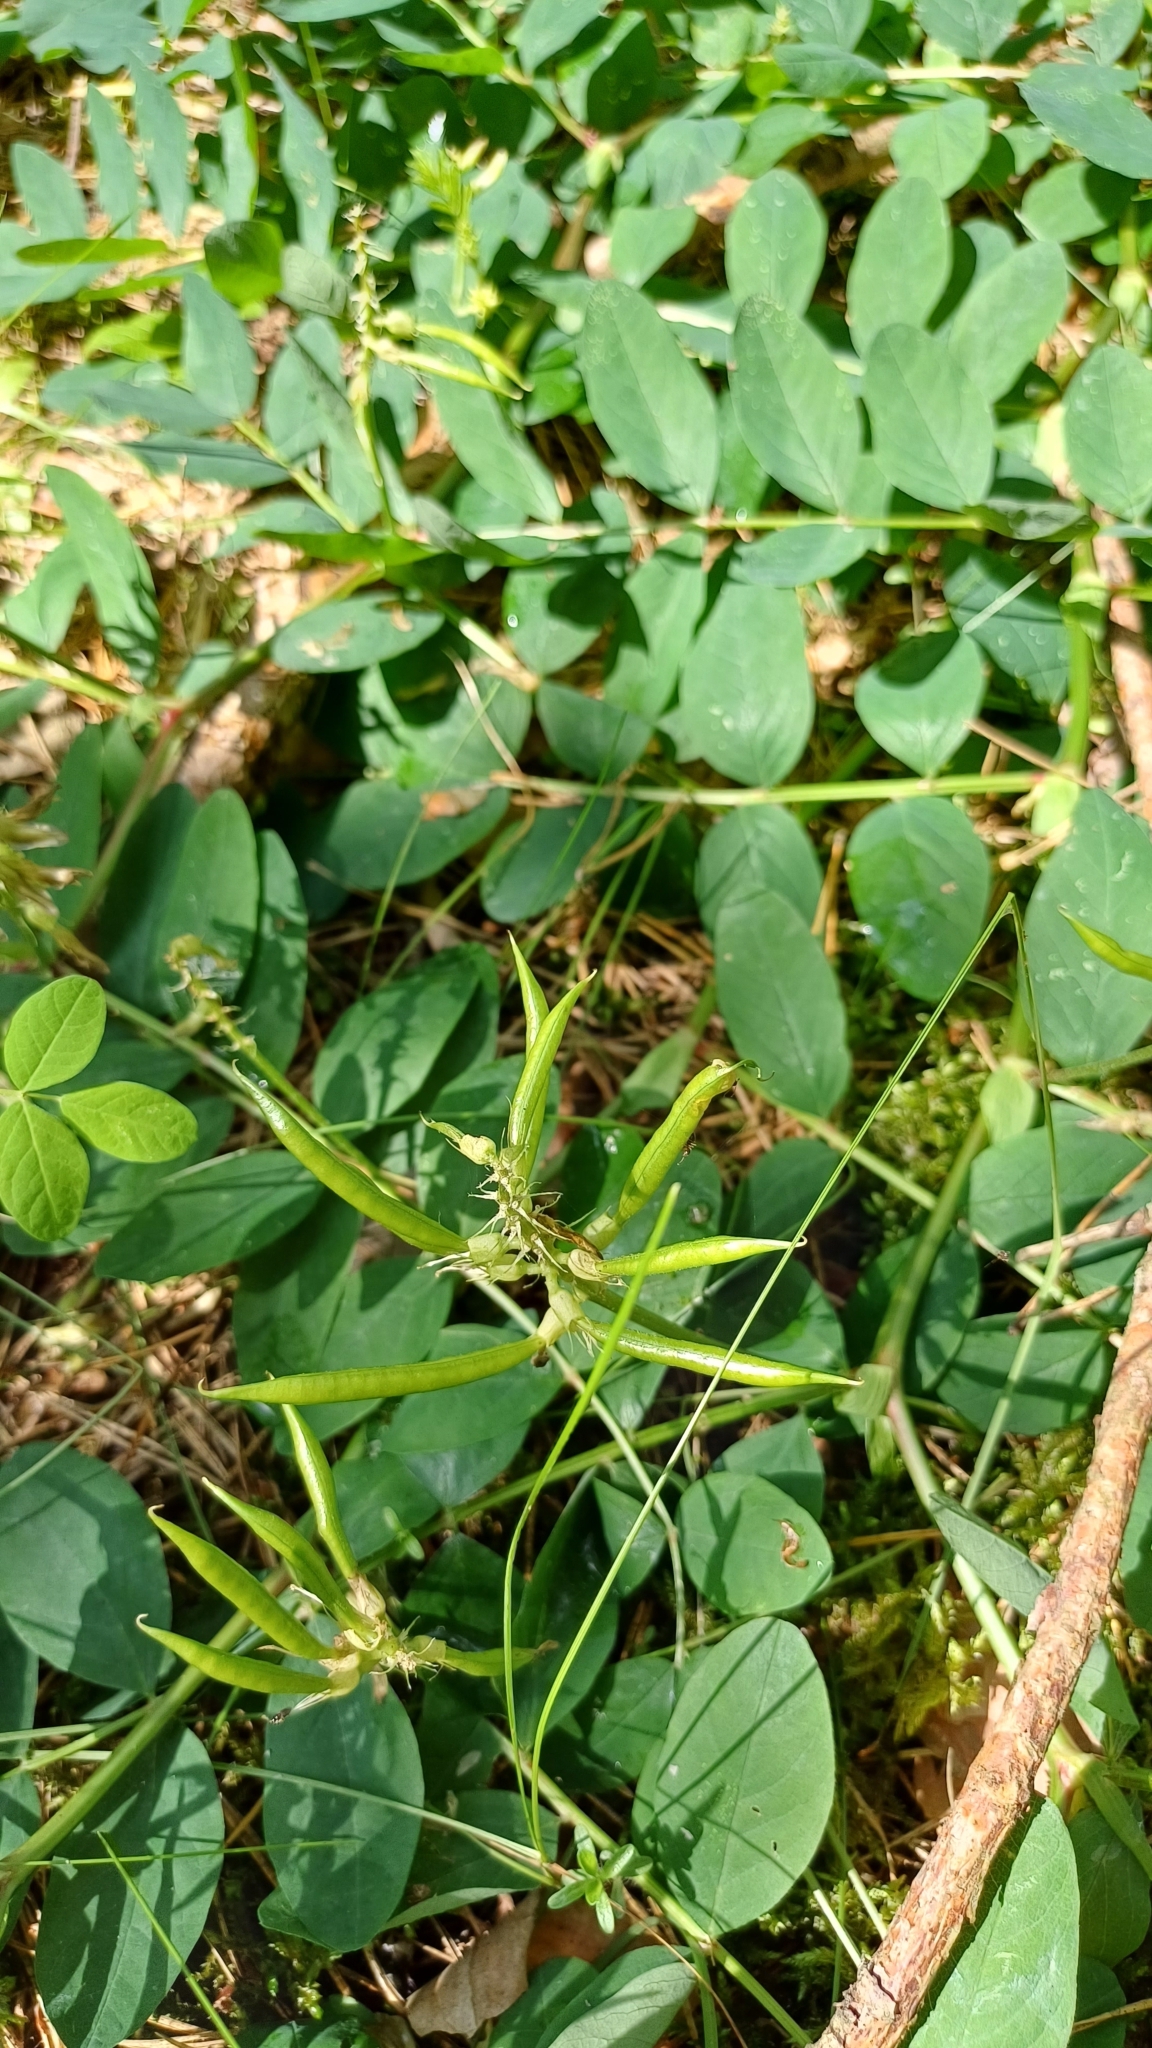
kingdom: Plantae
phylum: Tracheophyta
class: Magnoliopsida
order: Fabales
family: Fabaceae
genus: Astragalus
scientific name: Astragalus glycyphyllos
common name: Wild liquorice
